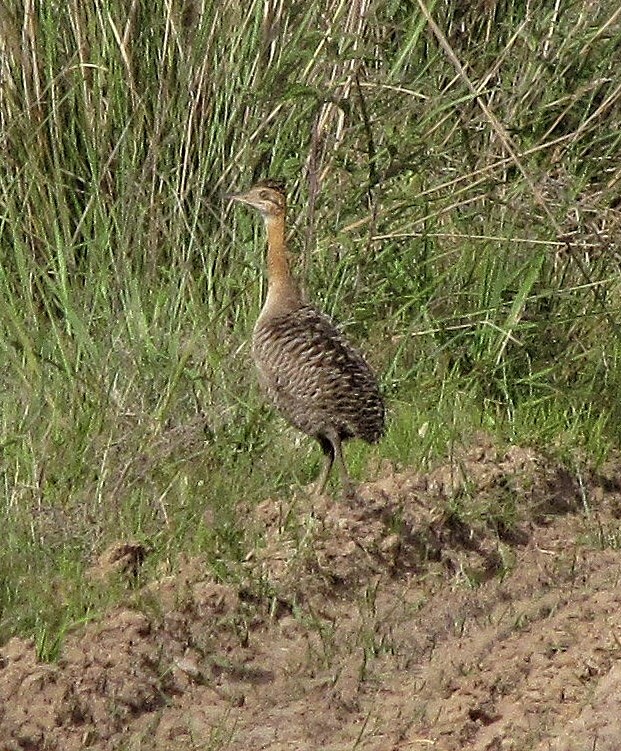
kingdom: Animalia
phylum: Chordata
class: Aves
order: Tinamiformes
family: Tinamidae
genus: Rhynchotus
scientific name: Rhynchotus rufescens
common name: Red-winged tinamou
